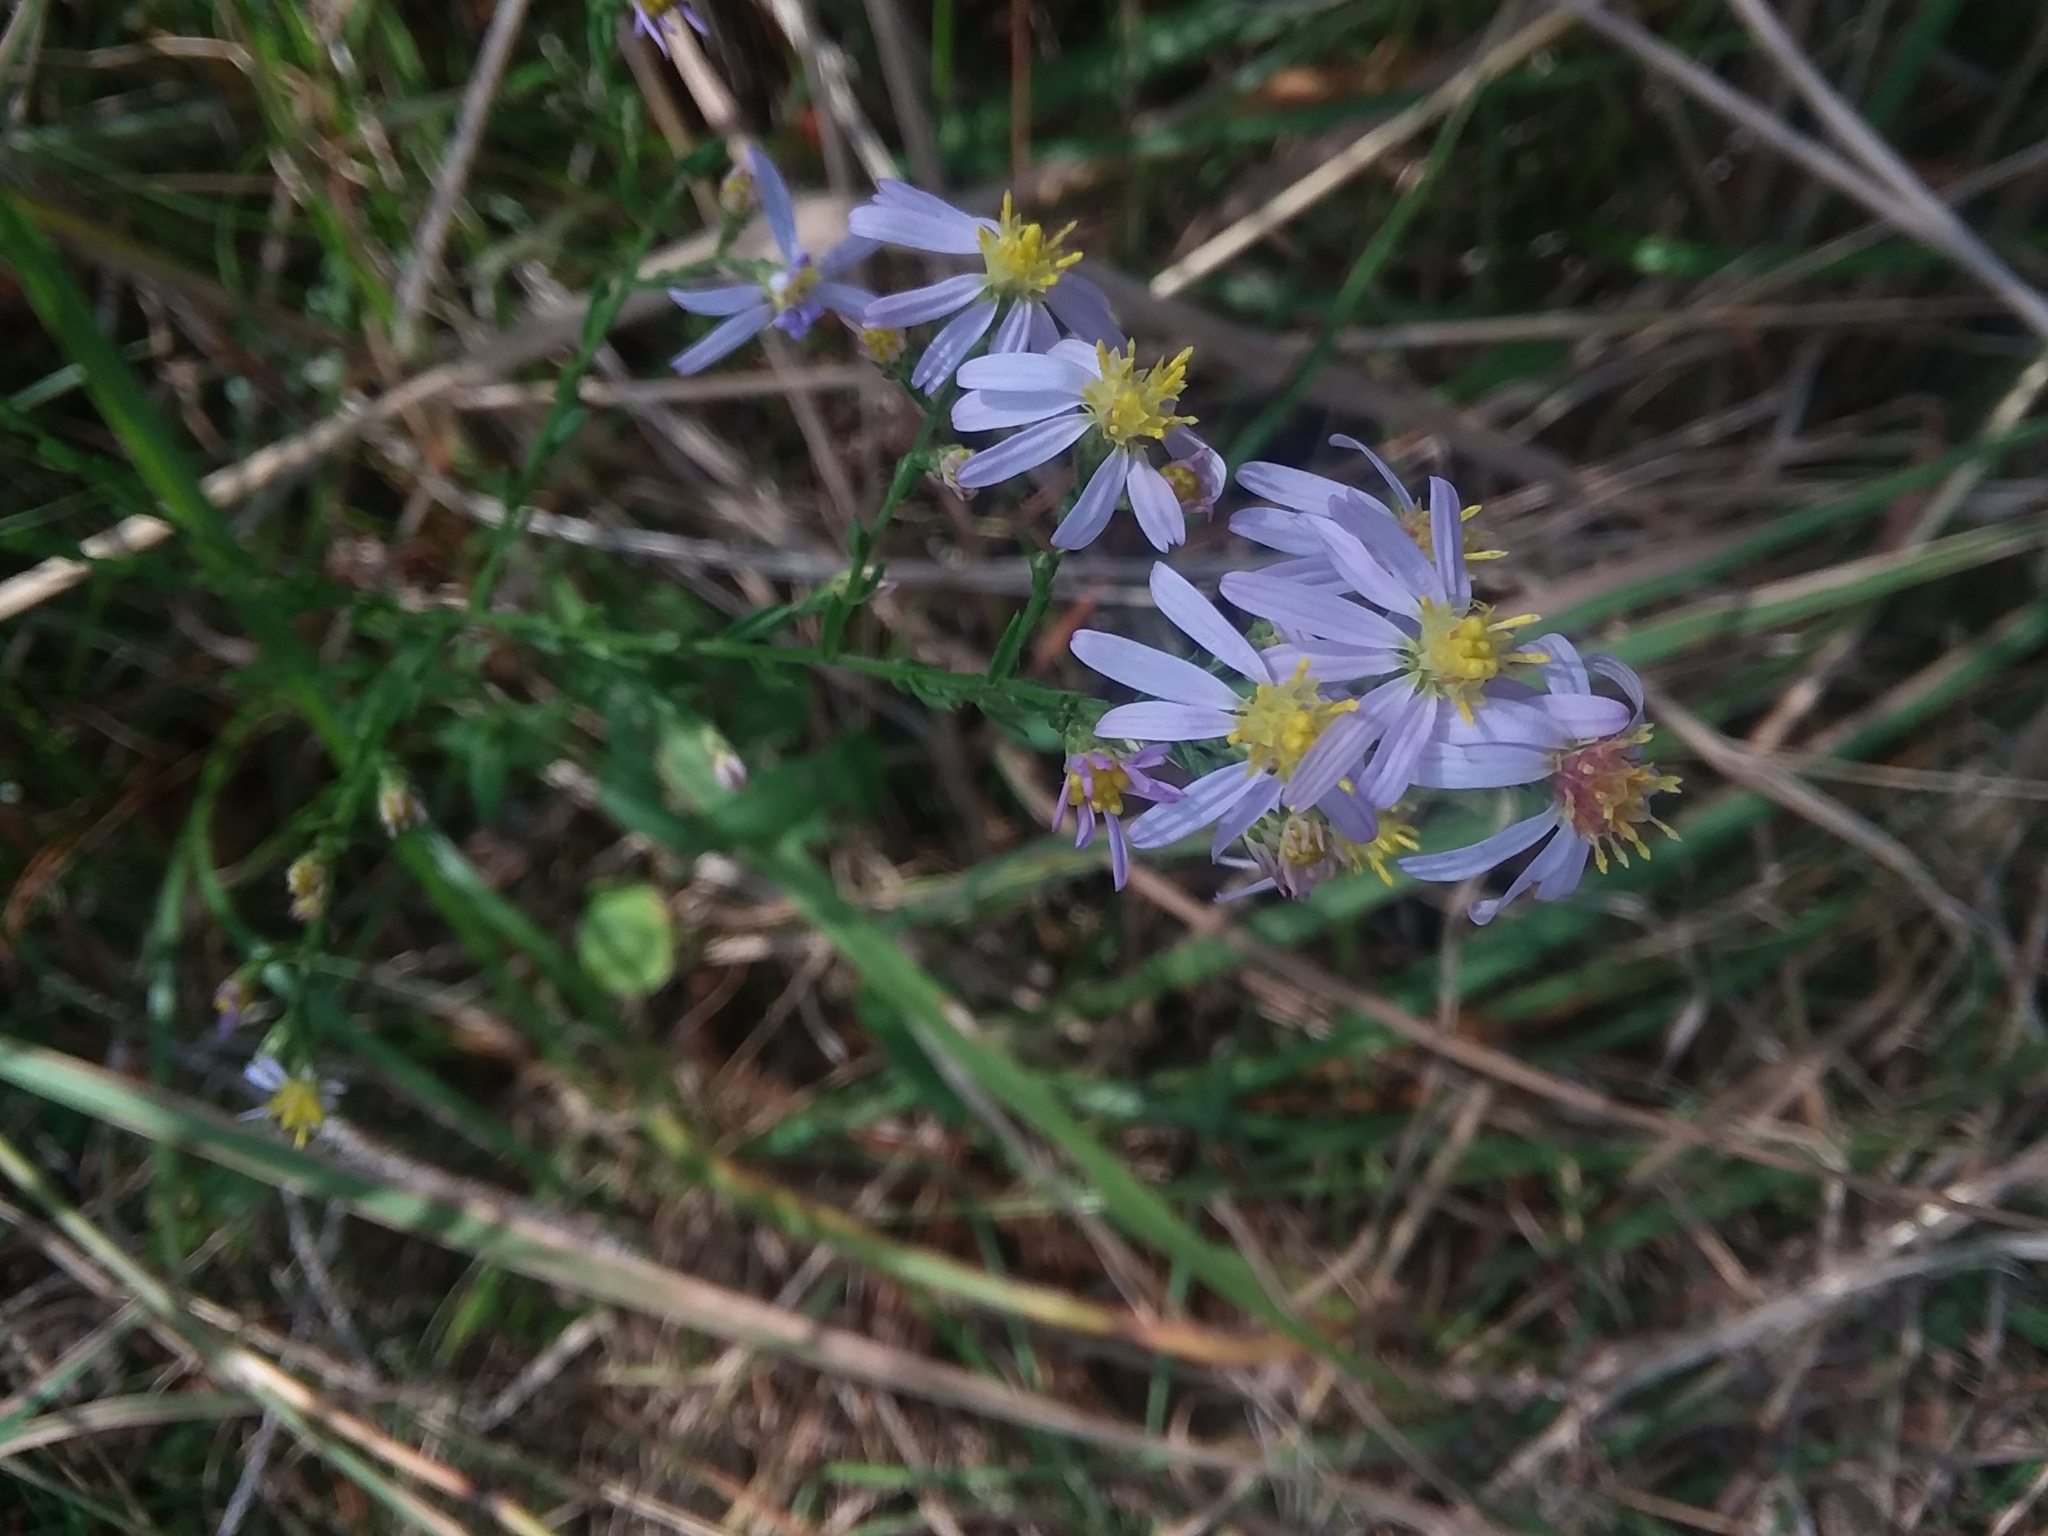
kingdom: Plantae
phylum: Tracheophyta
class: Magnoliopsida
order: Asterales
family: Asteraceae
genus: Symphyotrichum
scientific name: Symphyotrichum undulatum
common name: Clasping heart-leaf aster
